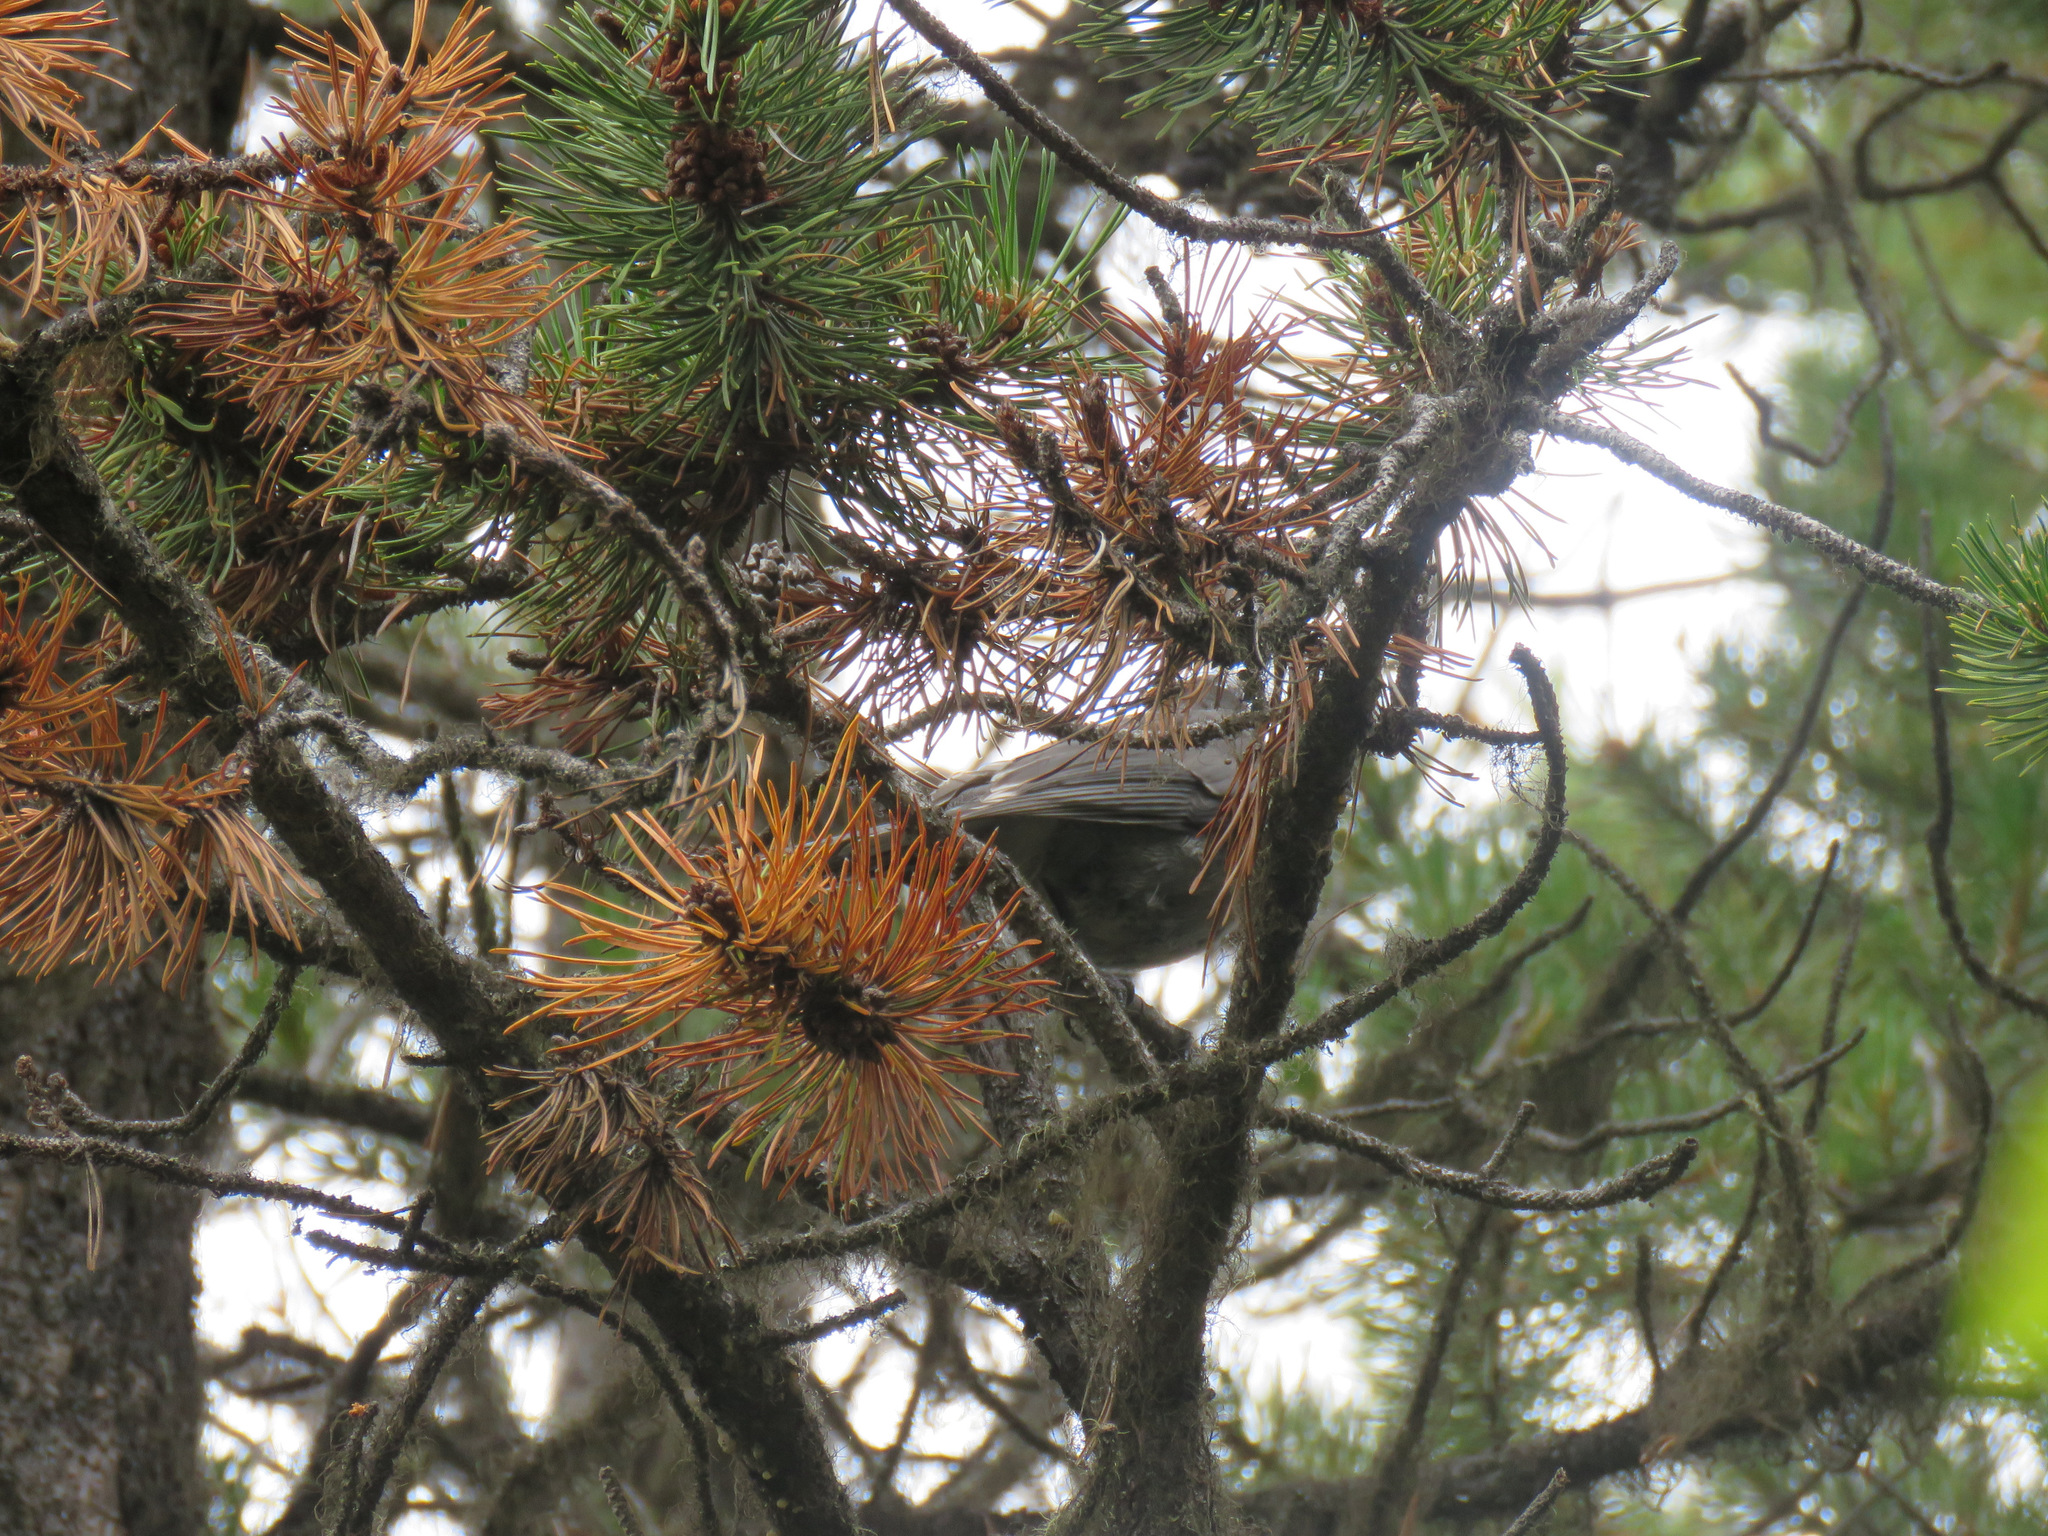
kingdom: Animalia
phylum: Chordata
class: Aves
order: Passeriformes
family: Corvidae
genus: Perisoreus
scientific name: Perisoreus canadensis
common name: Gray jay
